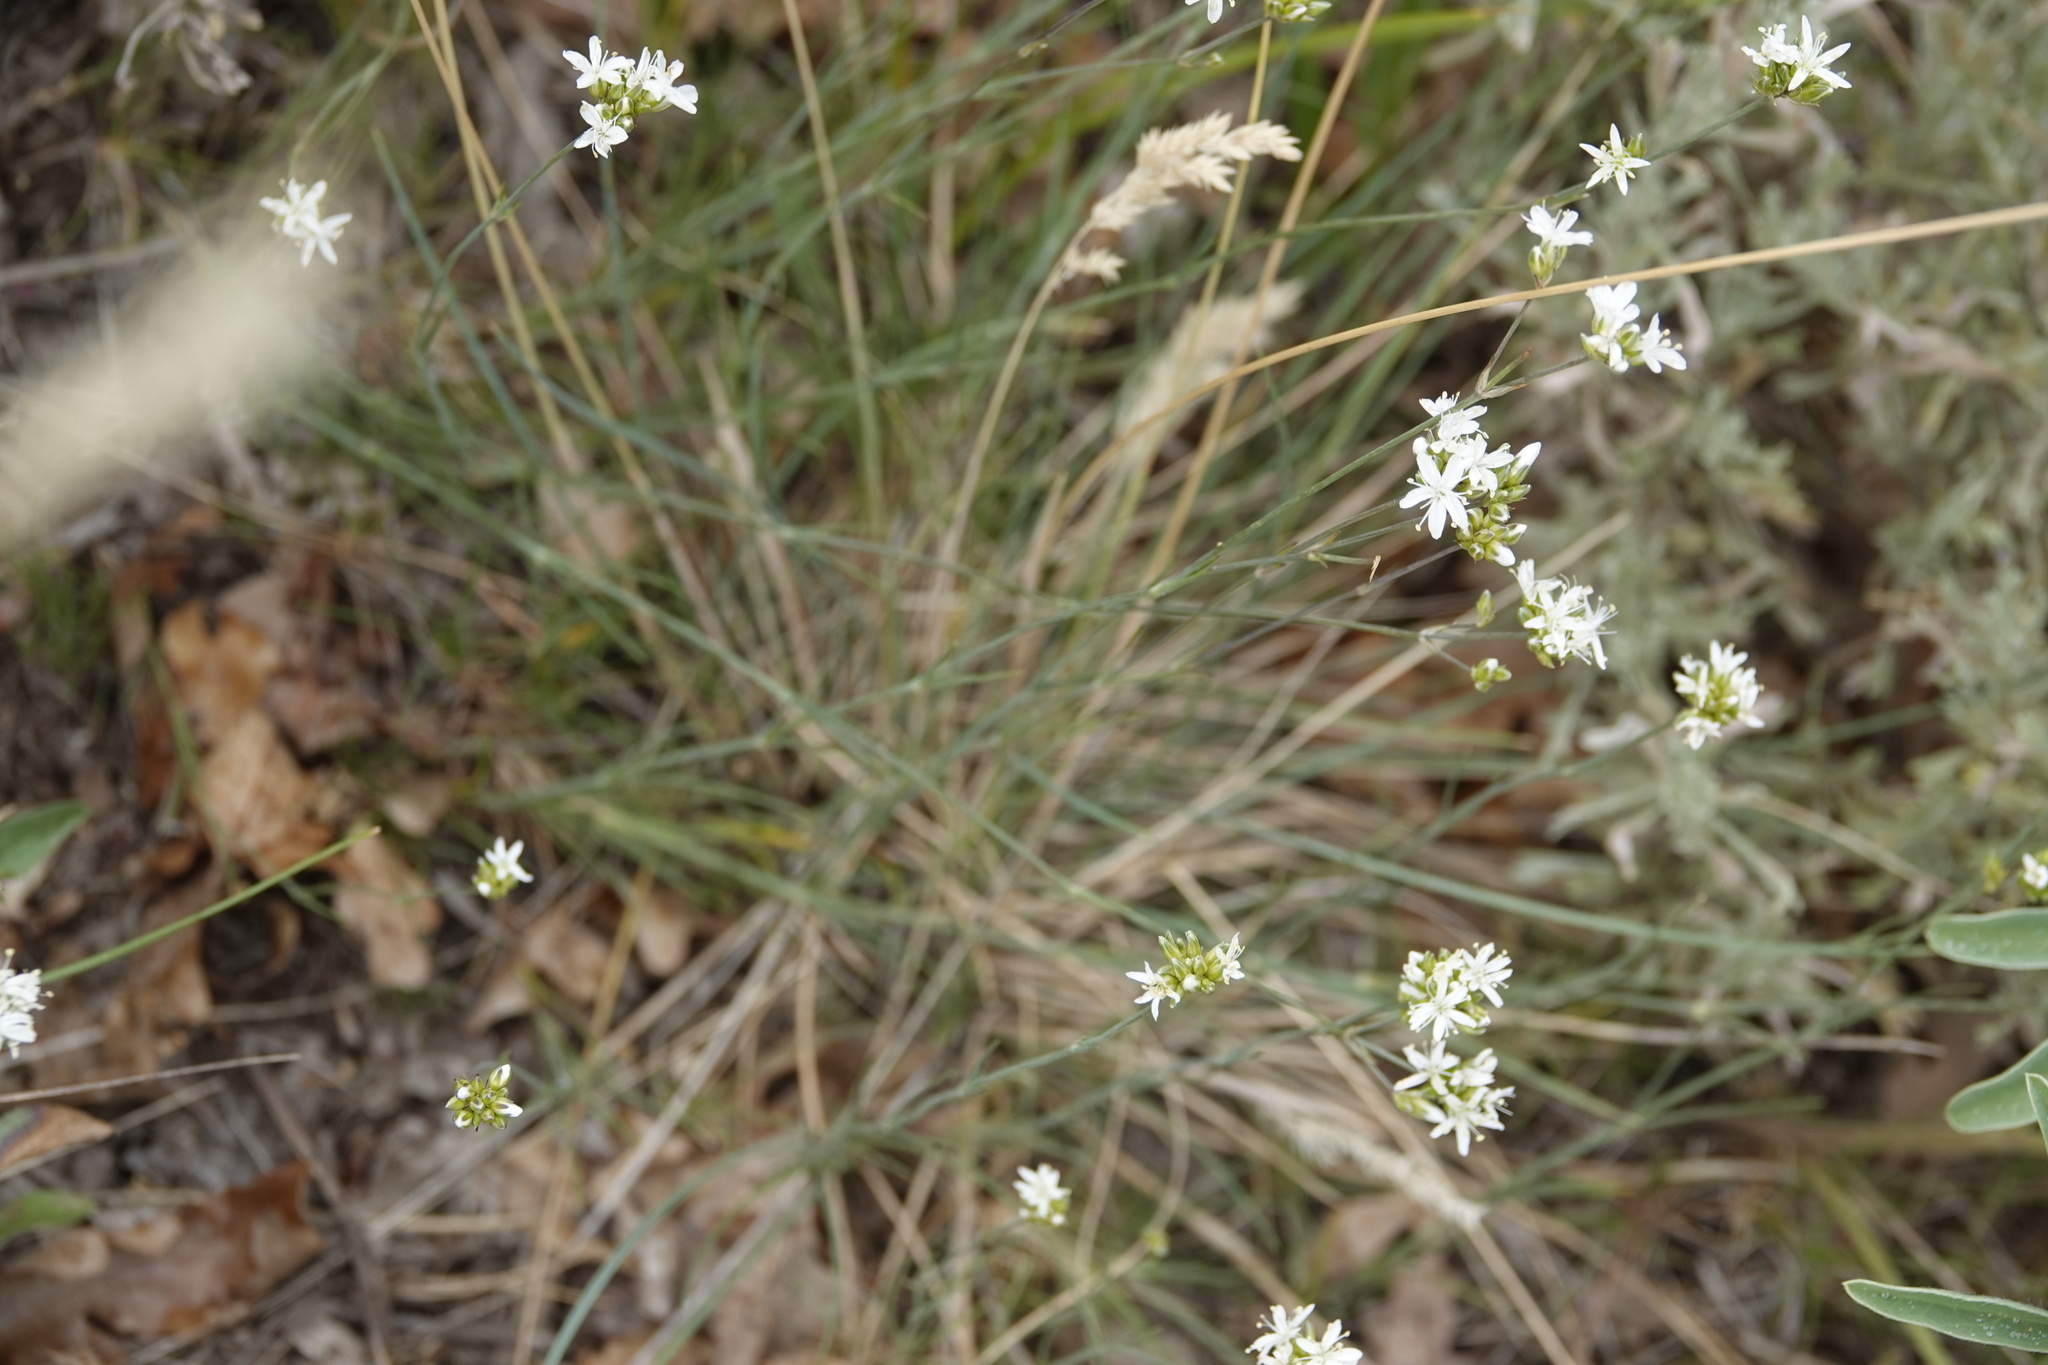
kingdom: Plantae
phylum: Tracheophyta
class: Magnoliopsida
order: Caryophyllales
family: Caryophyllaceae
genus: Eremogone
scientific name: Eremogone congesta
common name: Ballhead sandwort
